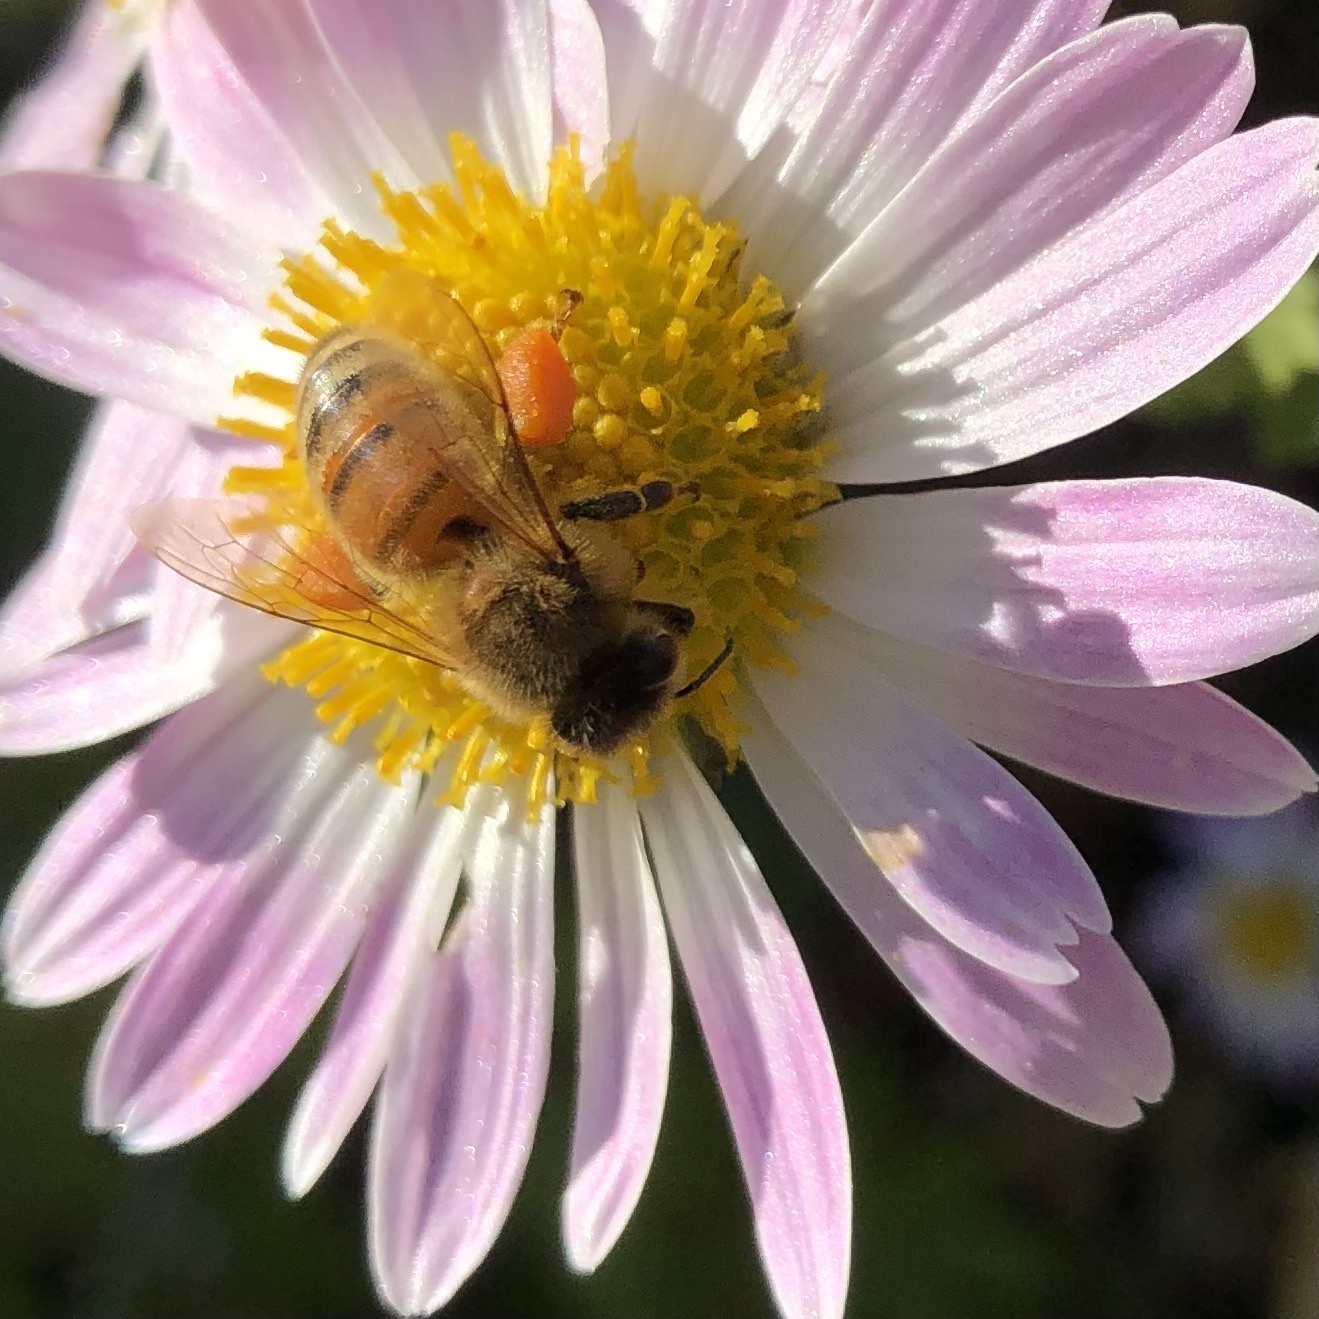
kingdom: Animalia
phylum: Arthropoda
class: Insecta
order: Hymenoptera
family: Apidae
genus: Apis
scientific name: Apis mellifera
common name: Honey bee
